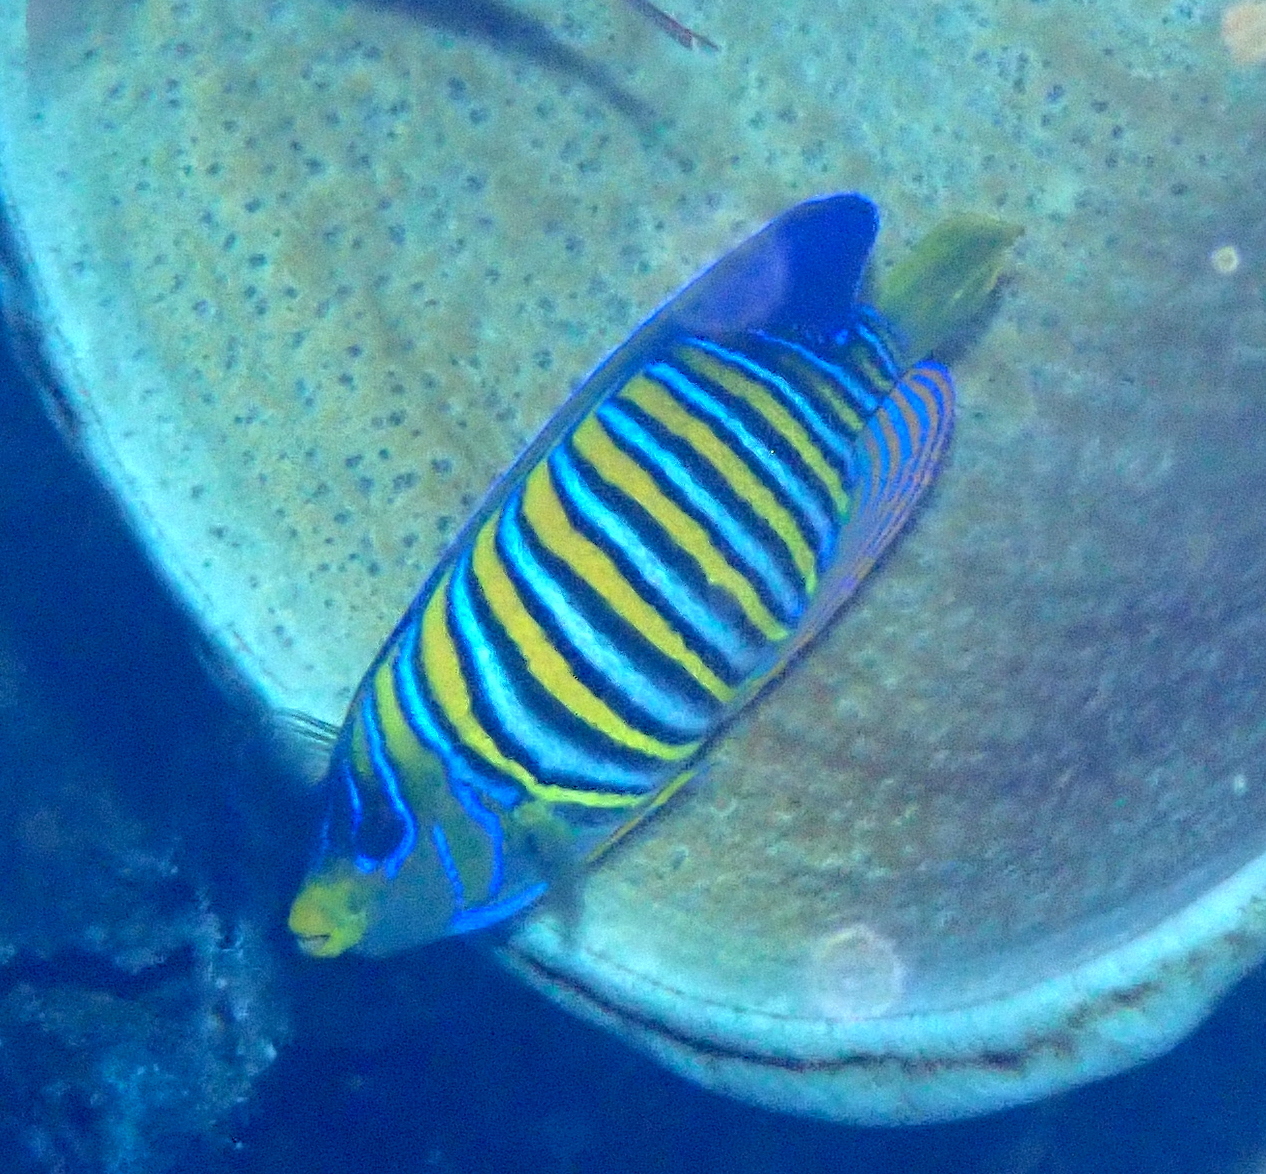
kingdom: Animalia
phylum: Chordata
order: Perciformes
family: Pomacanthidae
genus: Pygoplites
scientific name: Pygoplites diacanthus
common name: Regal angelfish
